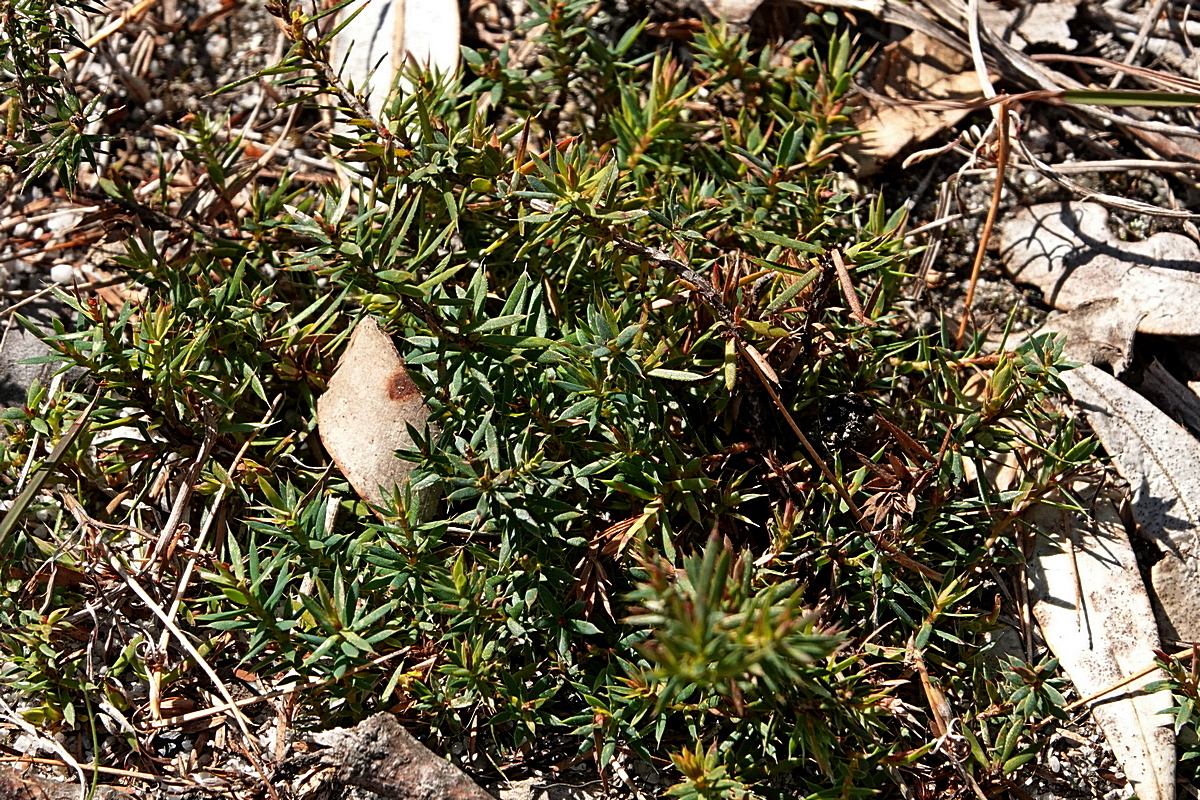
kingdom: Plantae
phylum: Tracheophyta
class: Magnoliopsida
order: Ericales
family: Ericaceae
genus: Styphelia
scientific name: Styphelia humifusa
